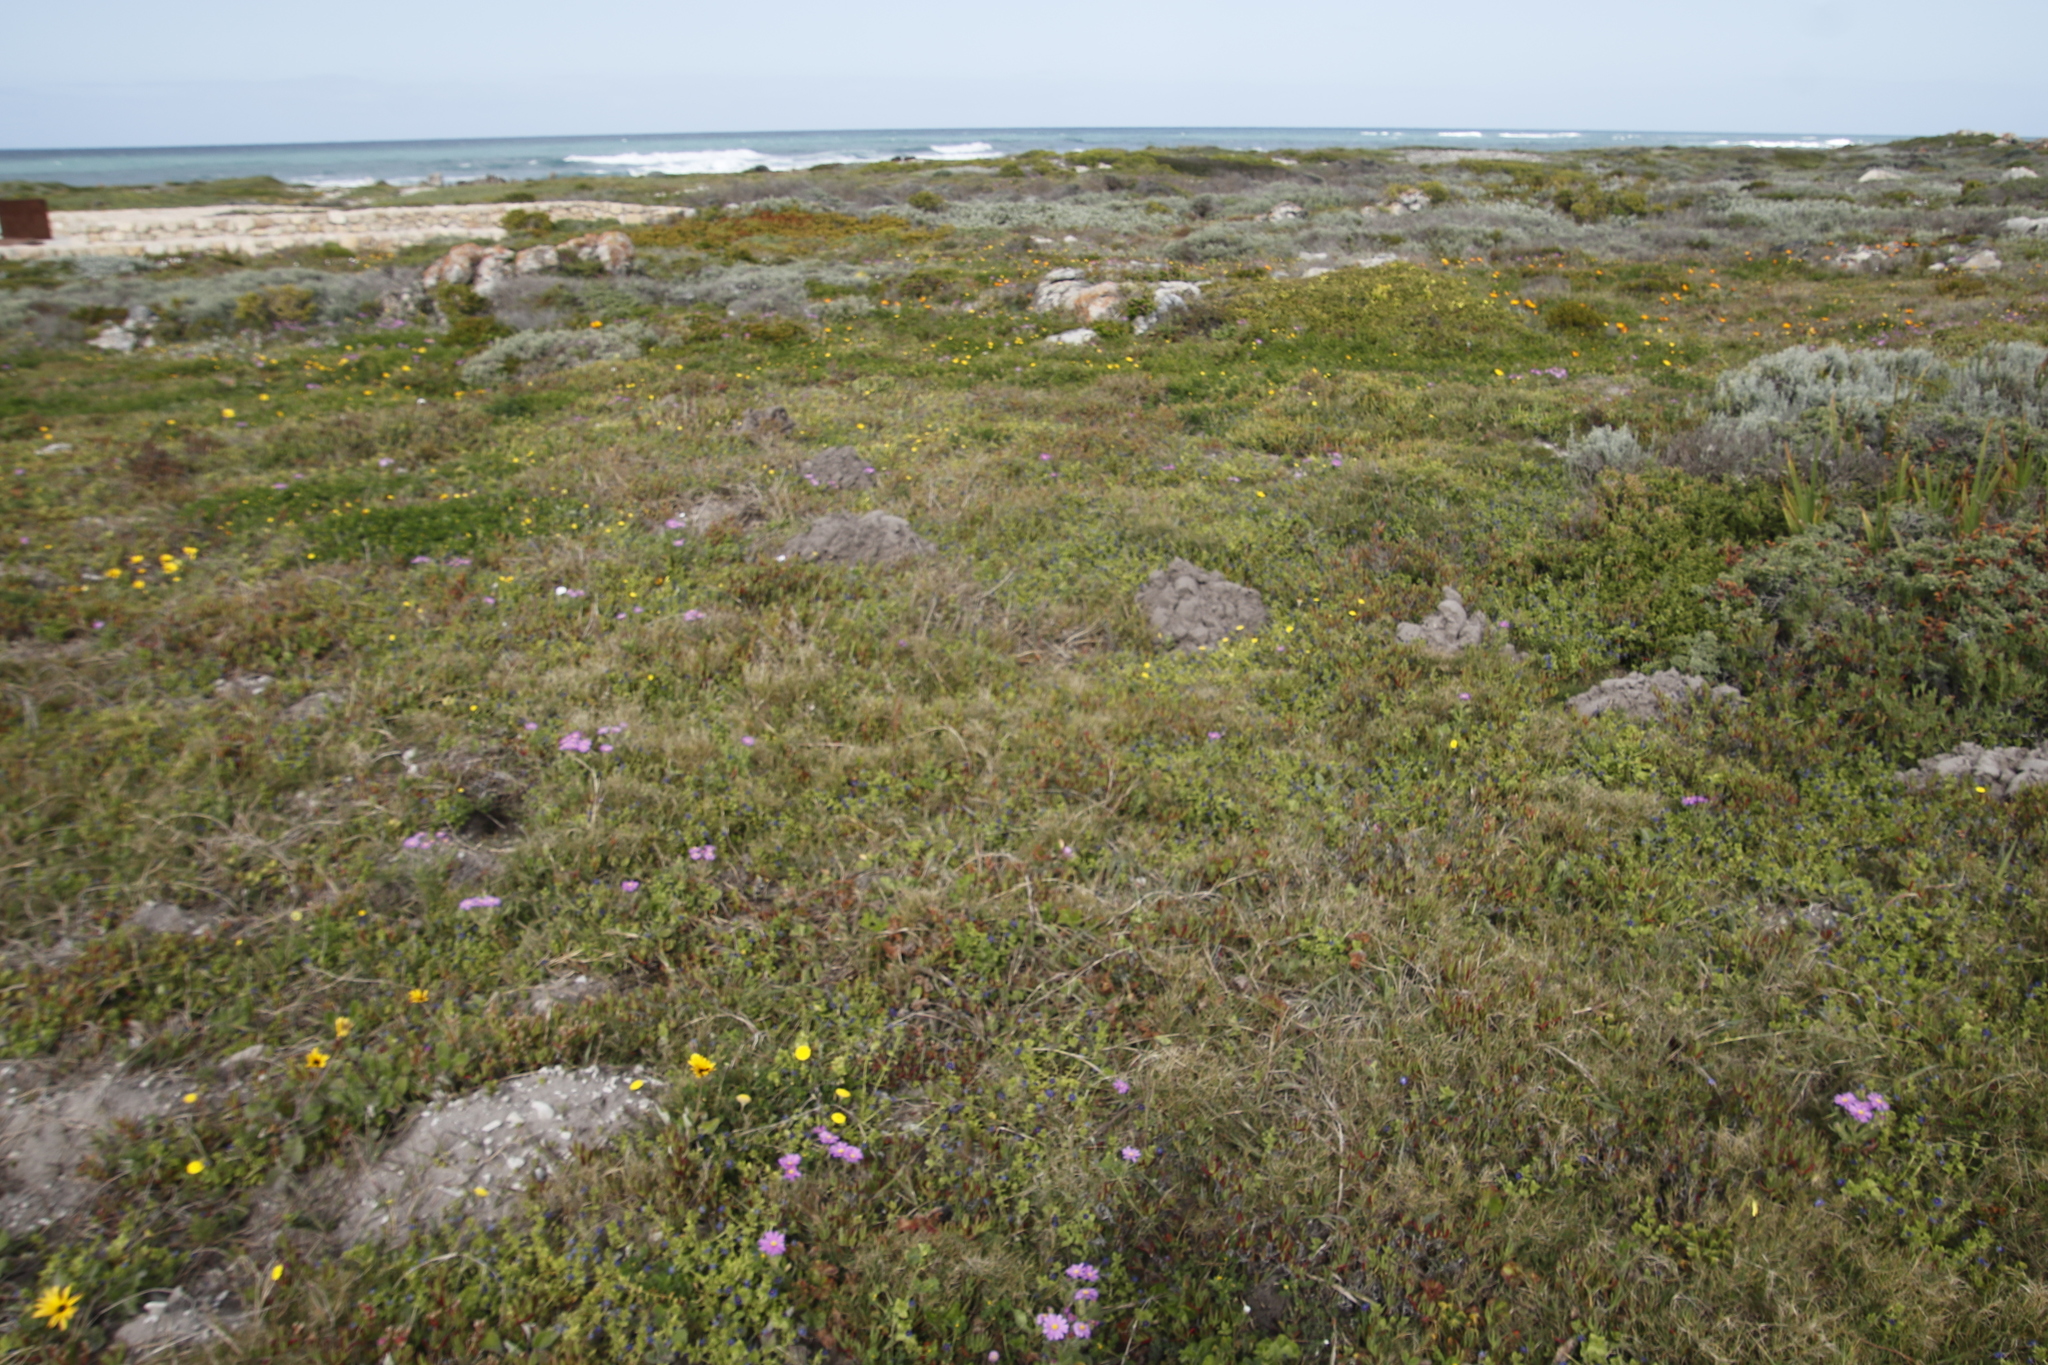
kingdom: Animalia
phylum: Chordata
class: Mammalia
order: Rodentia
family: Bathyergidae
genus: Bathyergus
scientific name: Bathyergus suillus
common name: Cape dune mole rat
